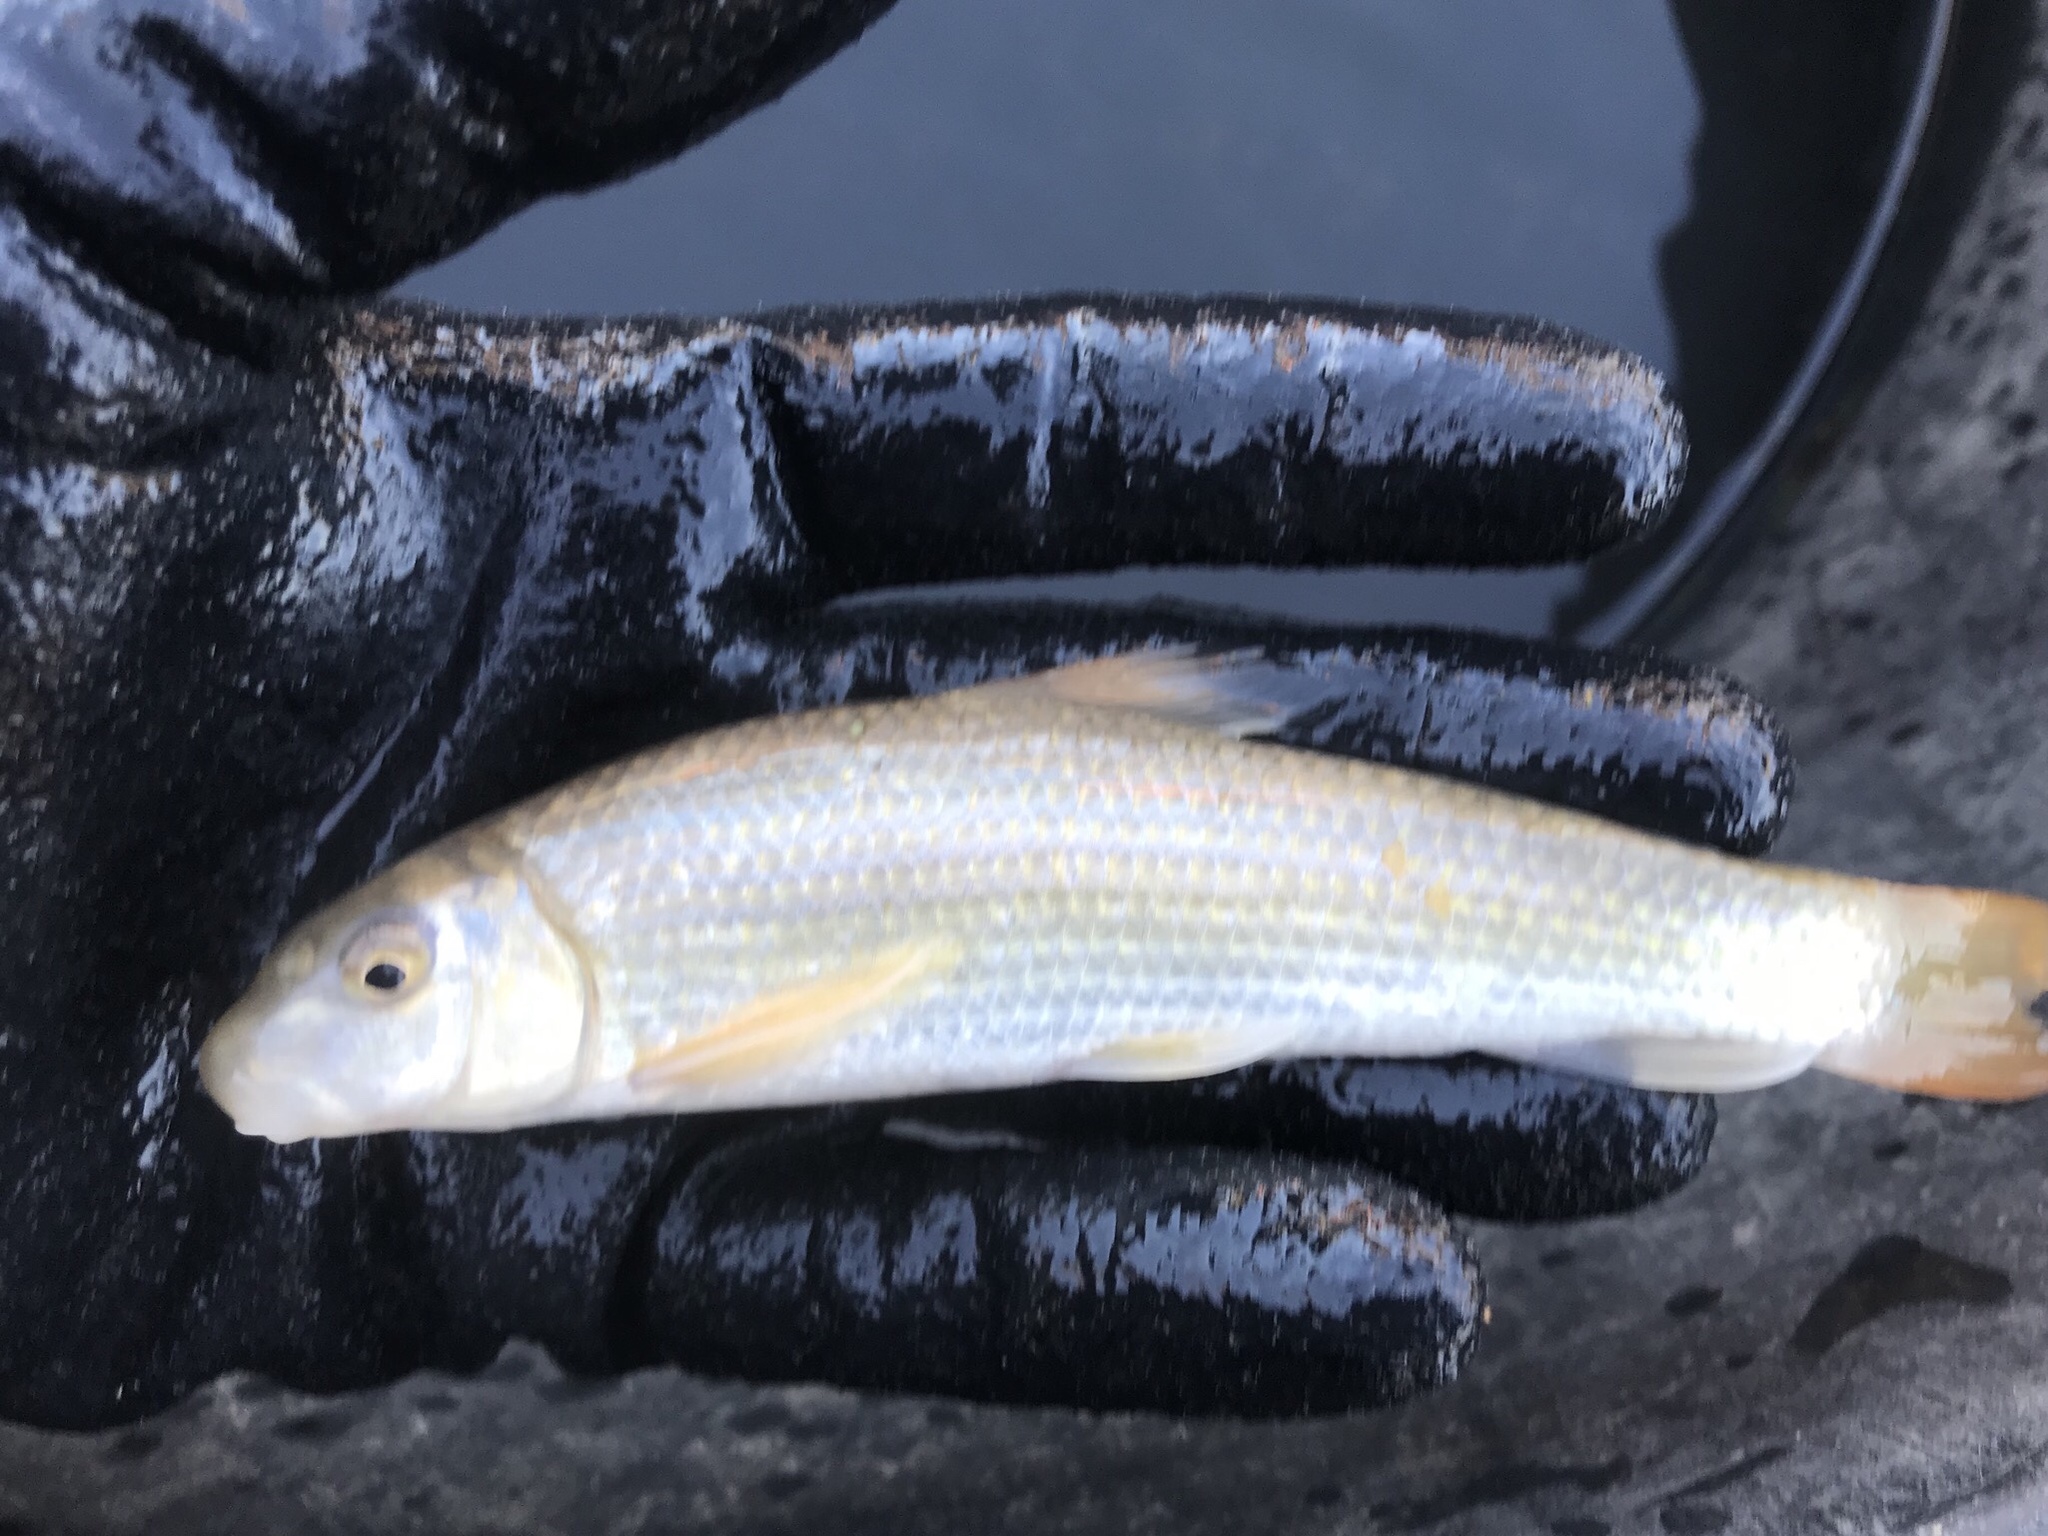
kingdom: Animalia
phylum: Chordata
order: Cypriniformes
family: Catostomidae
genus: Moxostoma
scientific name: Moxostoma congestum
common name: Gray redhorse
